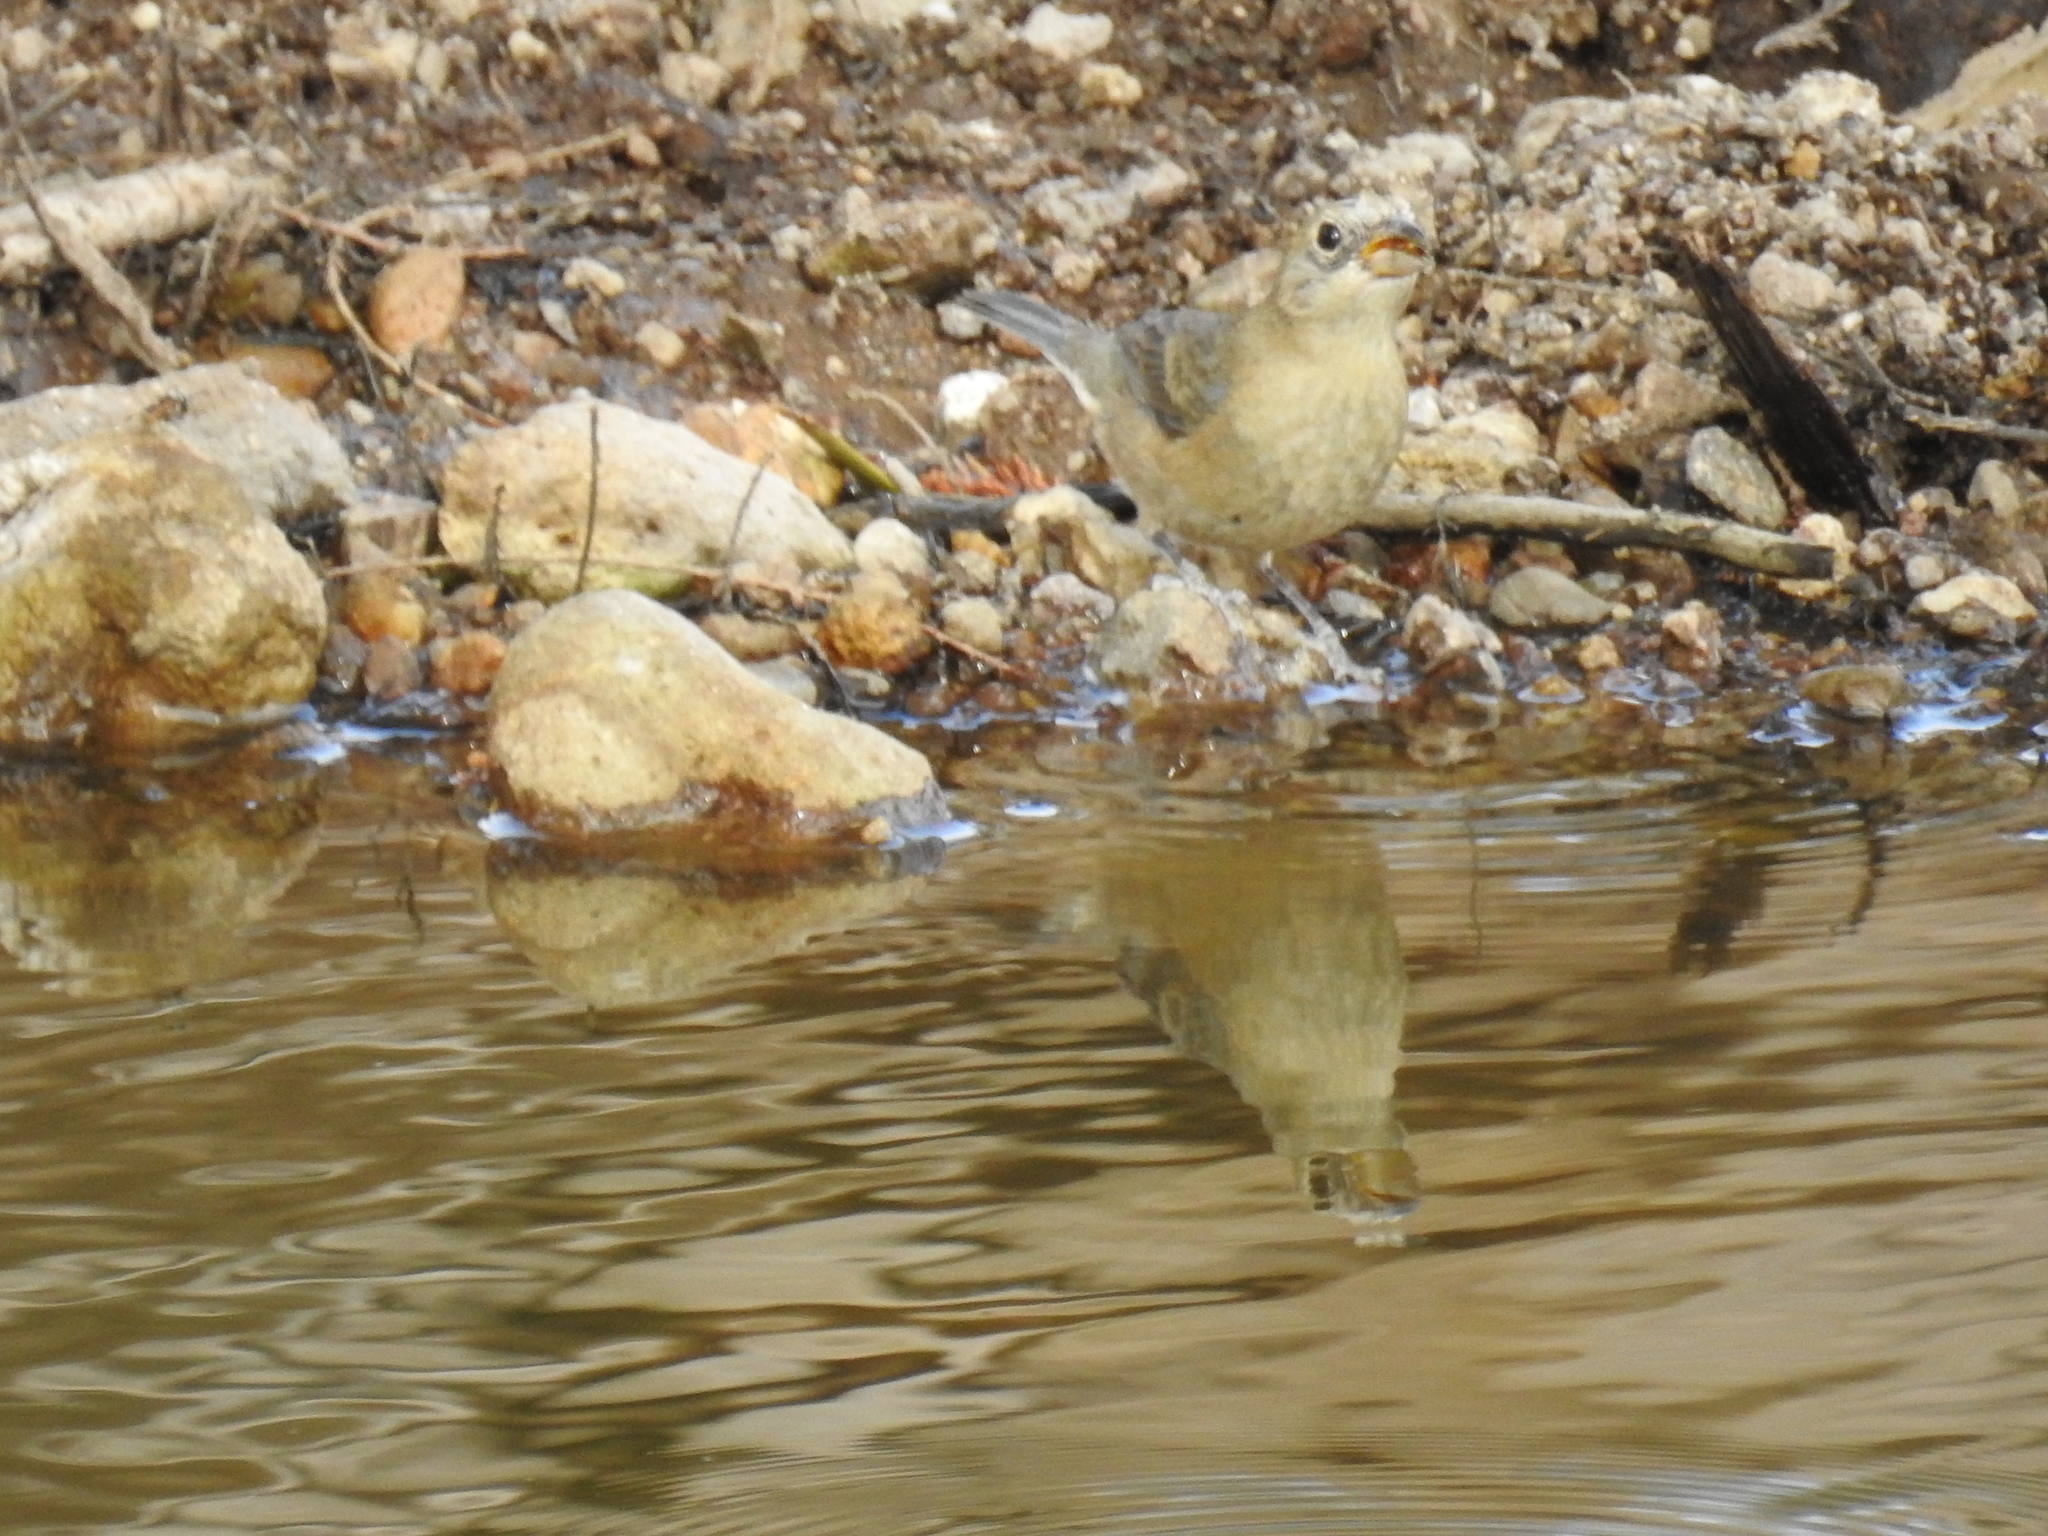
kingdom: Animalia
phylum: Chordata
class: Aves
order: Passeriformes
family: Cardinalidae
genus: Passerina
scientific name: Passerina amoena
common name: Lazuli bunting
